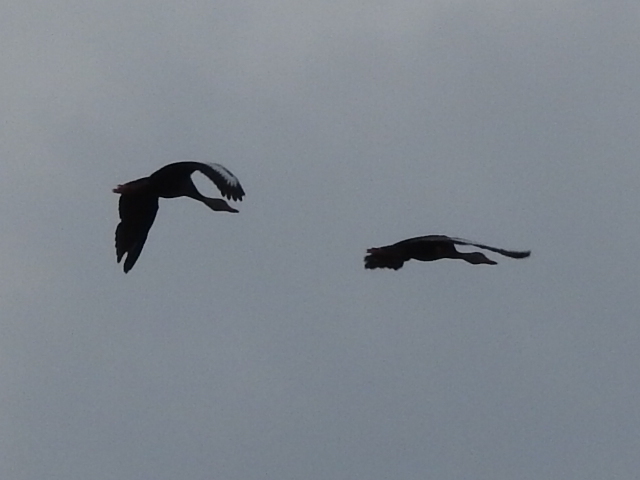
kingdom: Animalia
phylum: Chordata
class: Aves
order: Anseriformes
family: Anatidae
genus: Dendrocygna
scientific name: Dendrocygna autumnalis
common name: Black-bellied whistling duck
